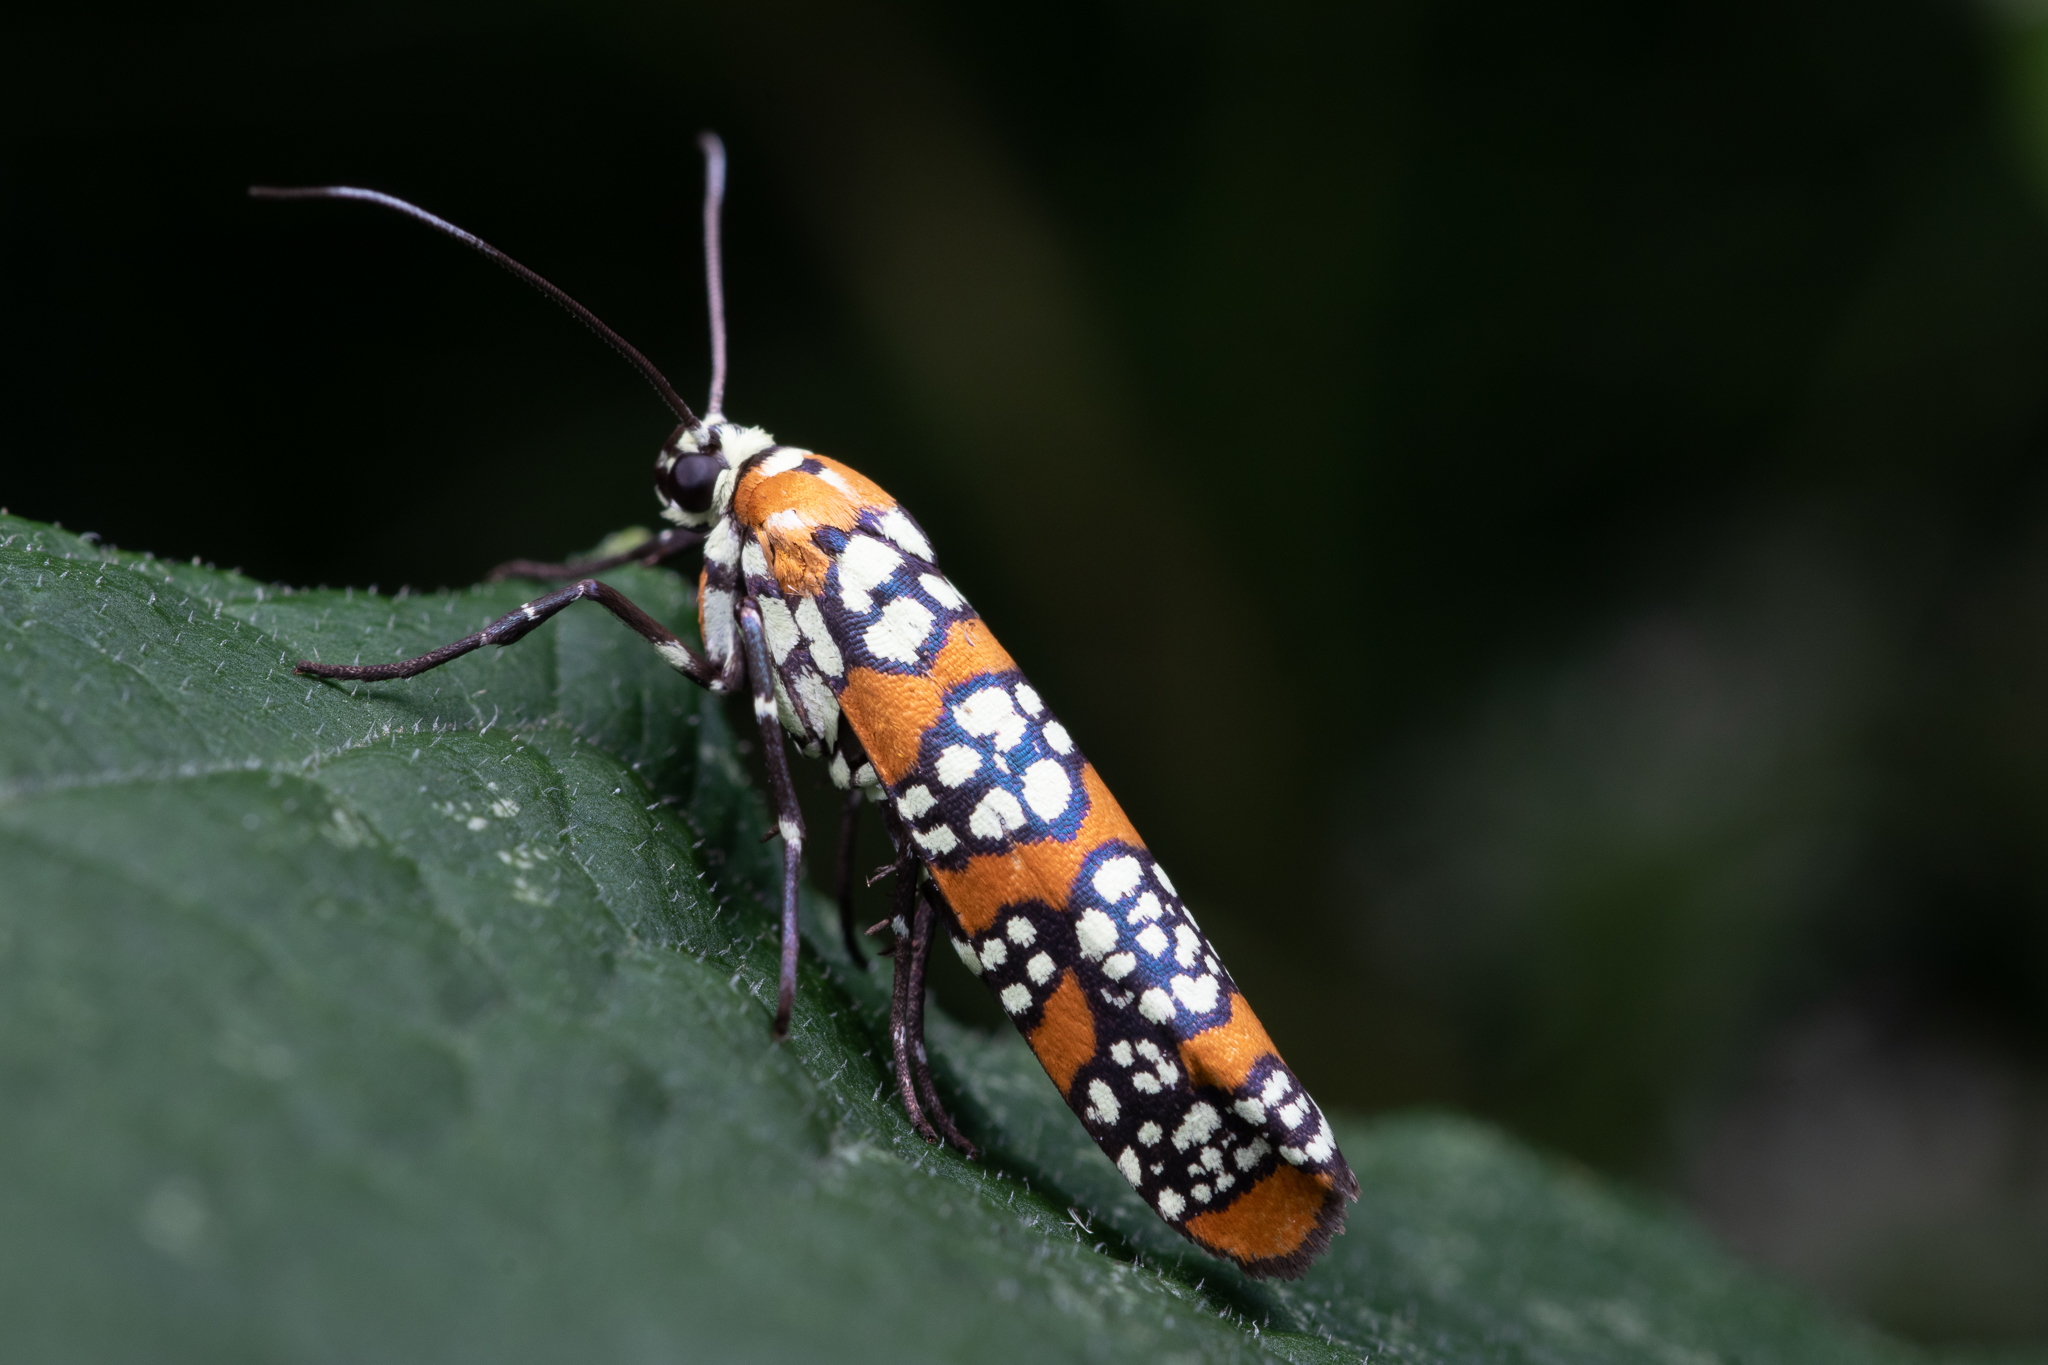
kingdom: Animalia
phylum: Arthropoda
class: Insecta
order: Lepidoptera
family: Attevidae
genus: Atteva
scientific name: Atteva punctella
